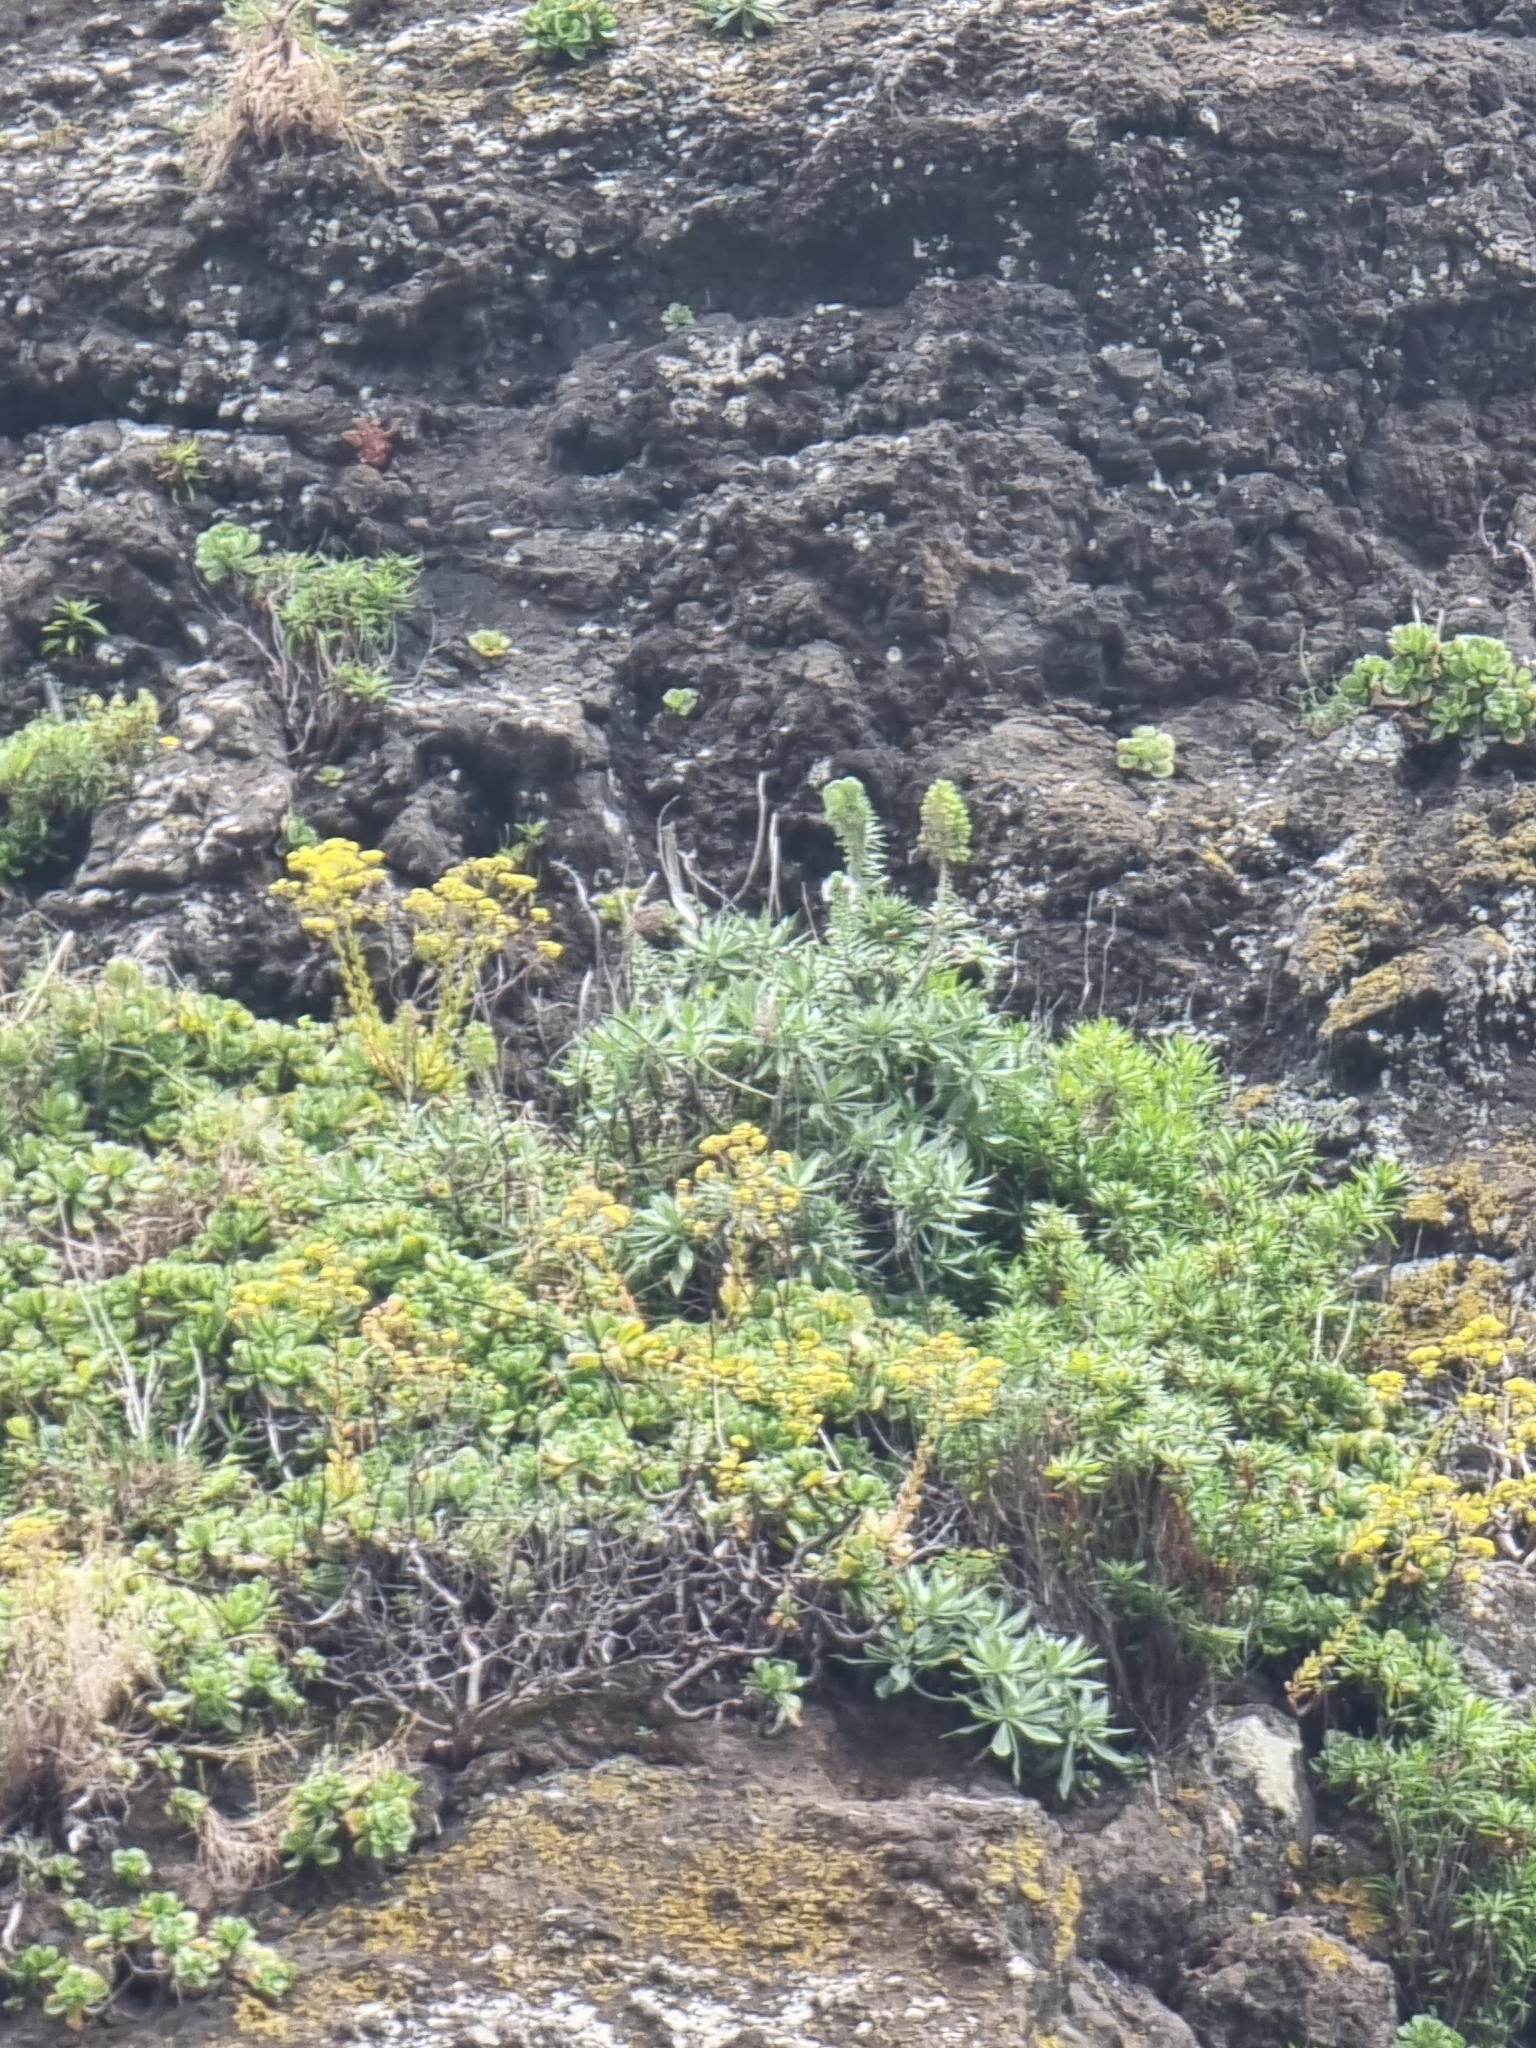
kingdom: Plantae
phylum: Tracheophyta
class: Magnoliopsida
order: Boraginales
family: Boraginaceae
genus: Echium
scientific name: Echium nervosum
